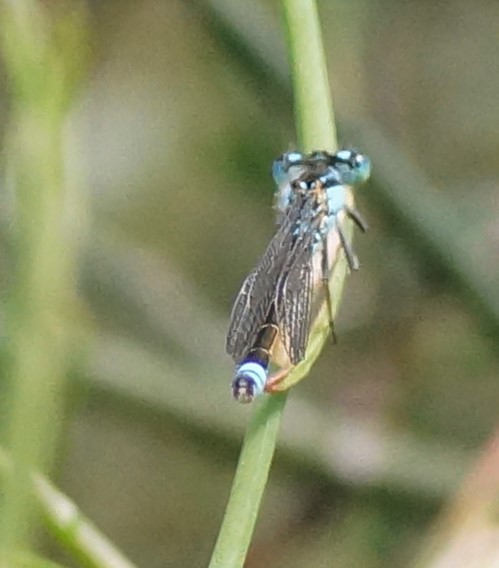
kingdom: Animalia
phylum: Arthropoda
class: Insecta
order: Odonata
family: Coenagrionidae
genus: Ischnura
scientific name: Ischnura heterosticta
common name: Common bluetail
